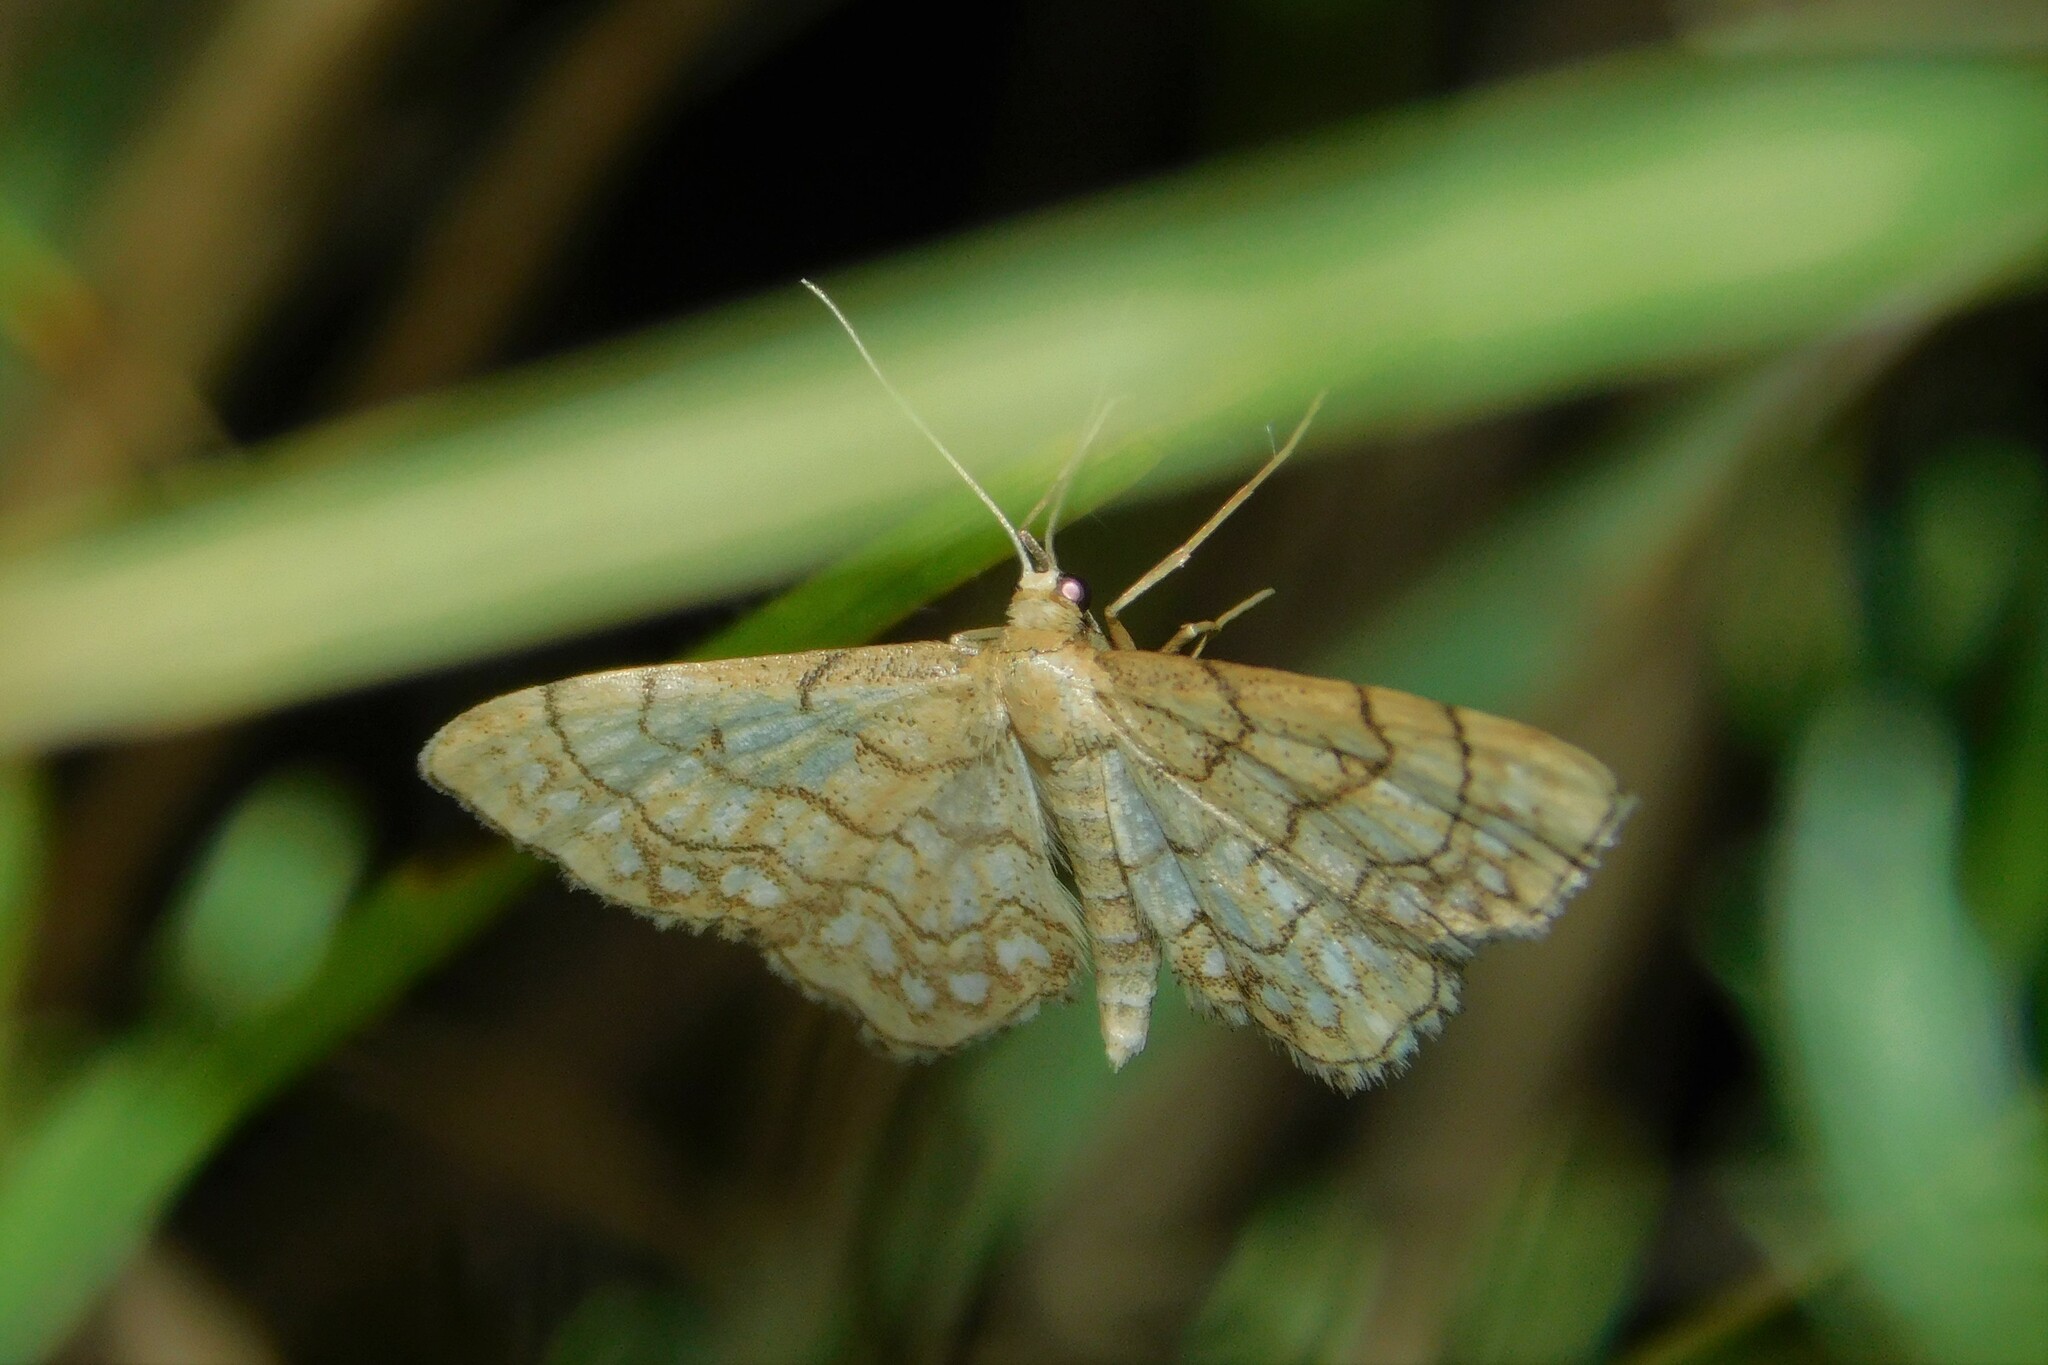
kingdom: Animalia
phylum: Arthropoda
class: Insecta
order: Lepidoptera
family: Geometridae
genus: Idaea
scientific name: Idaea moniliata
